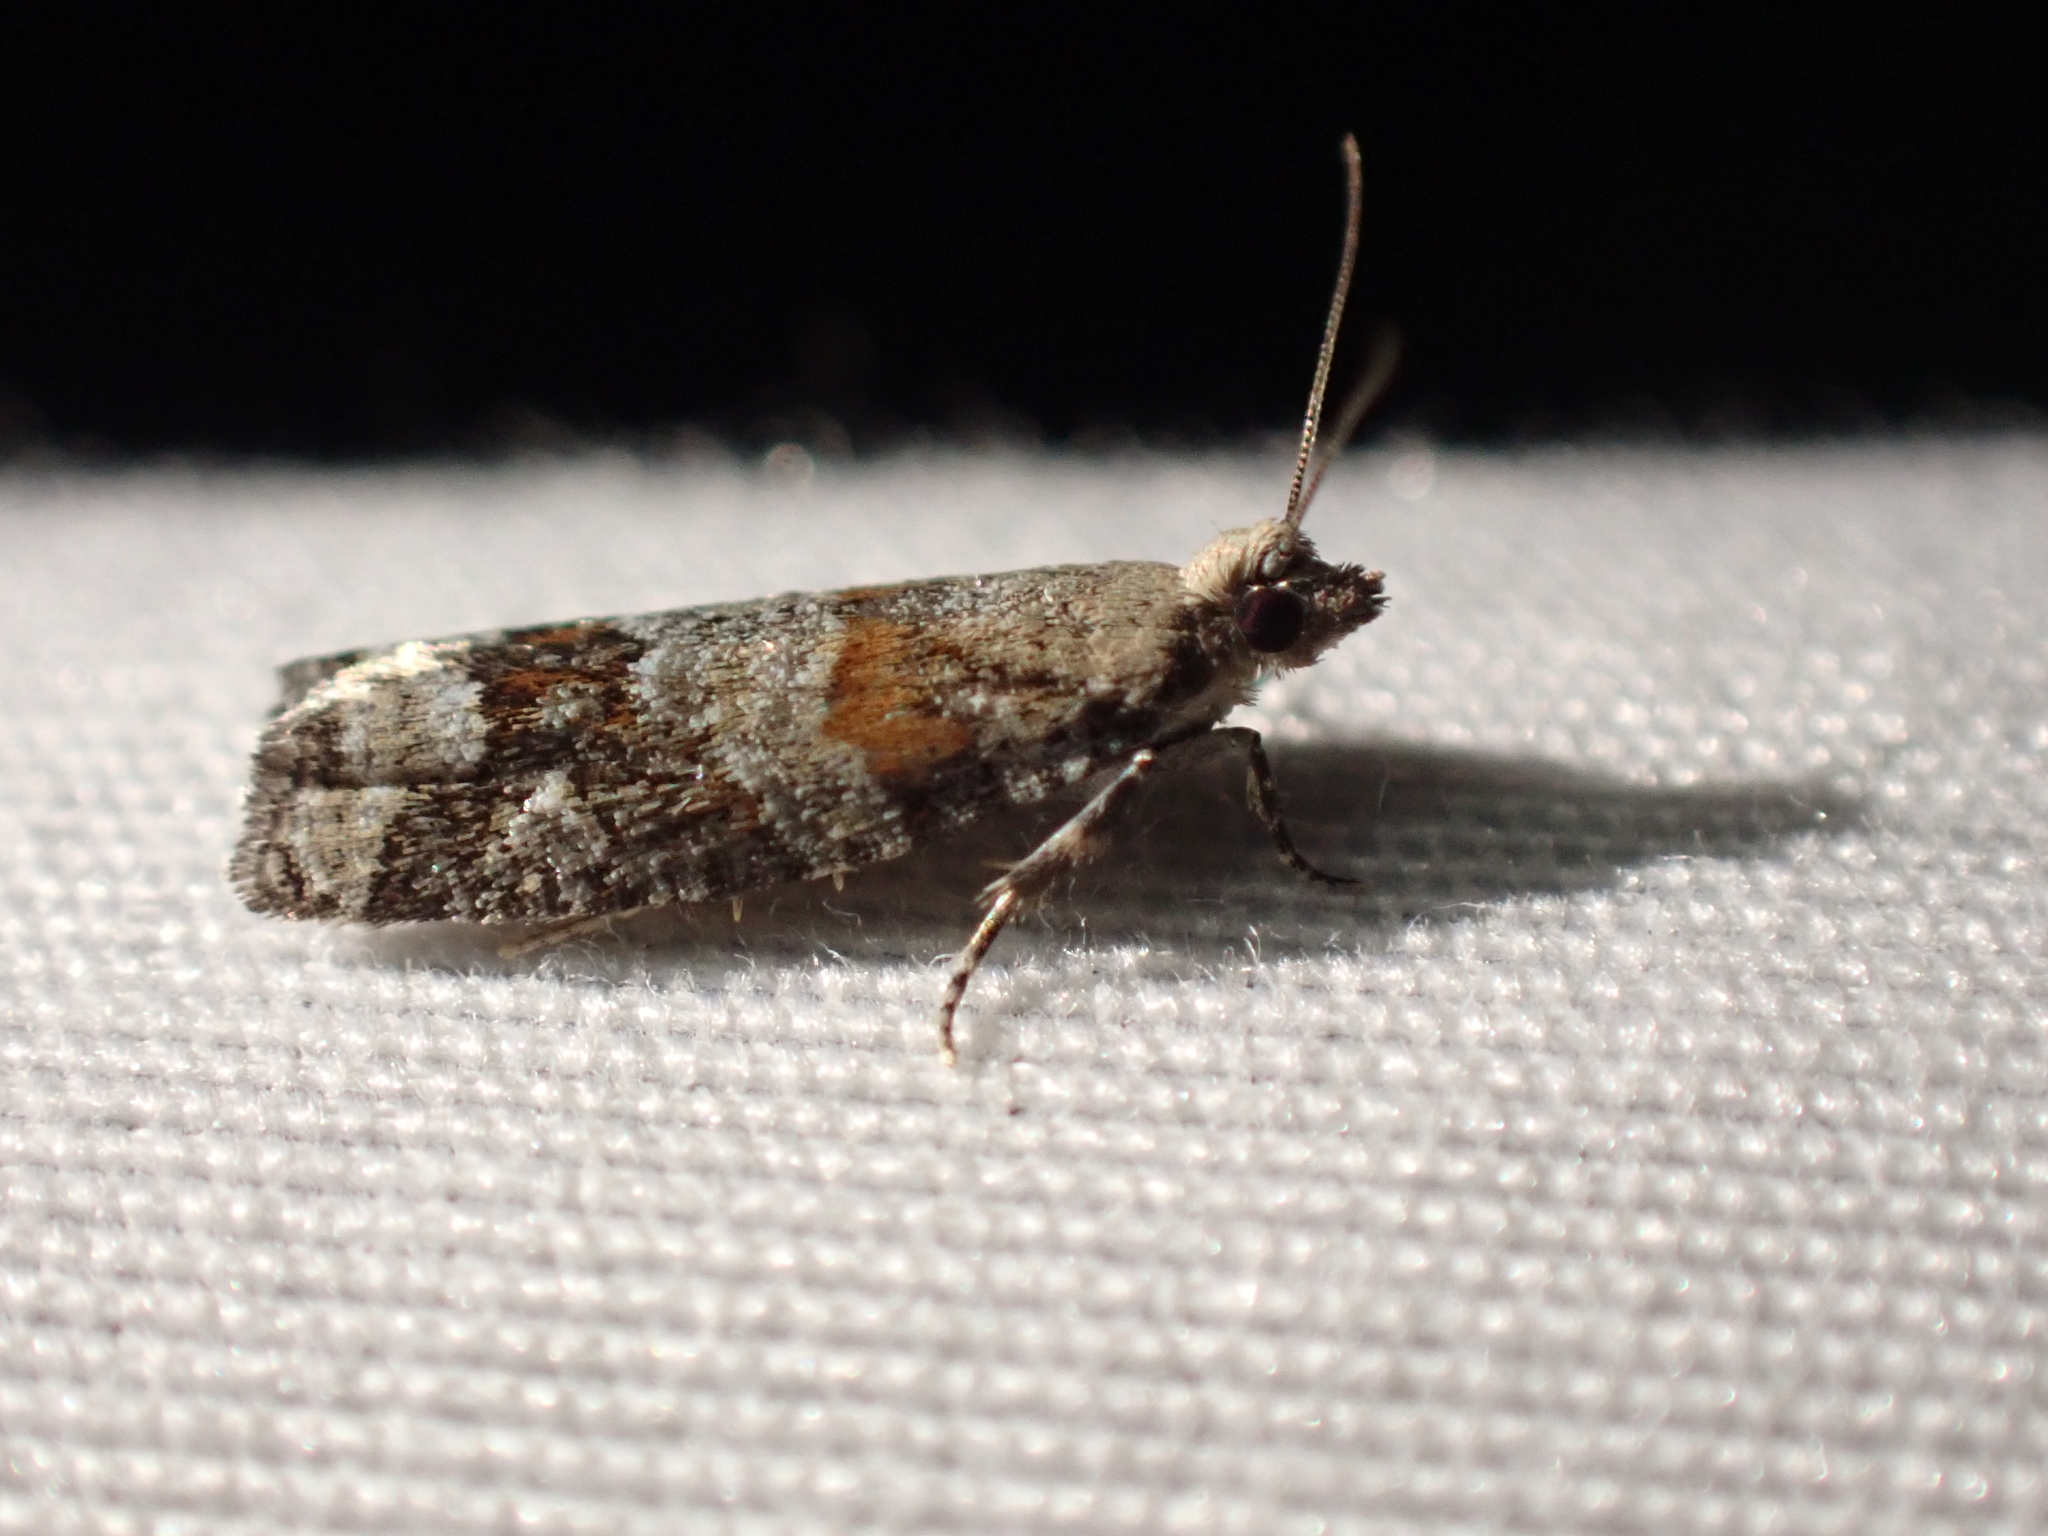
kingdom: Animalia
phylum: Arthropoda
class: Insecta
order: Lepidoptera
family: Tortricidae
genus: Epinotia
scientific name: Epinotia radicana
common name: Red-striped needleworm moth
